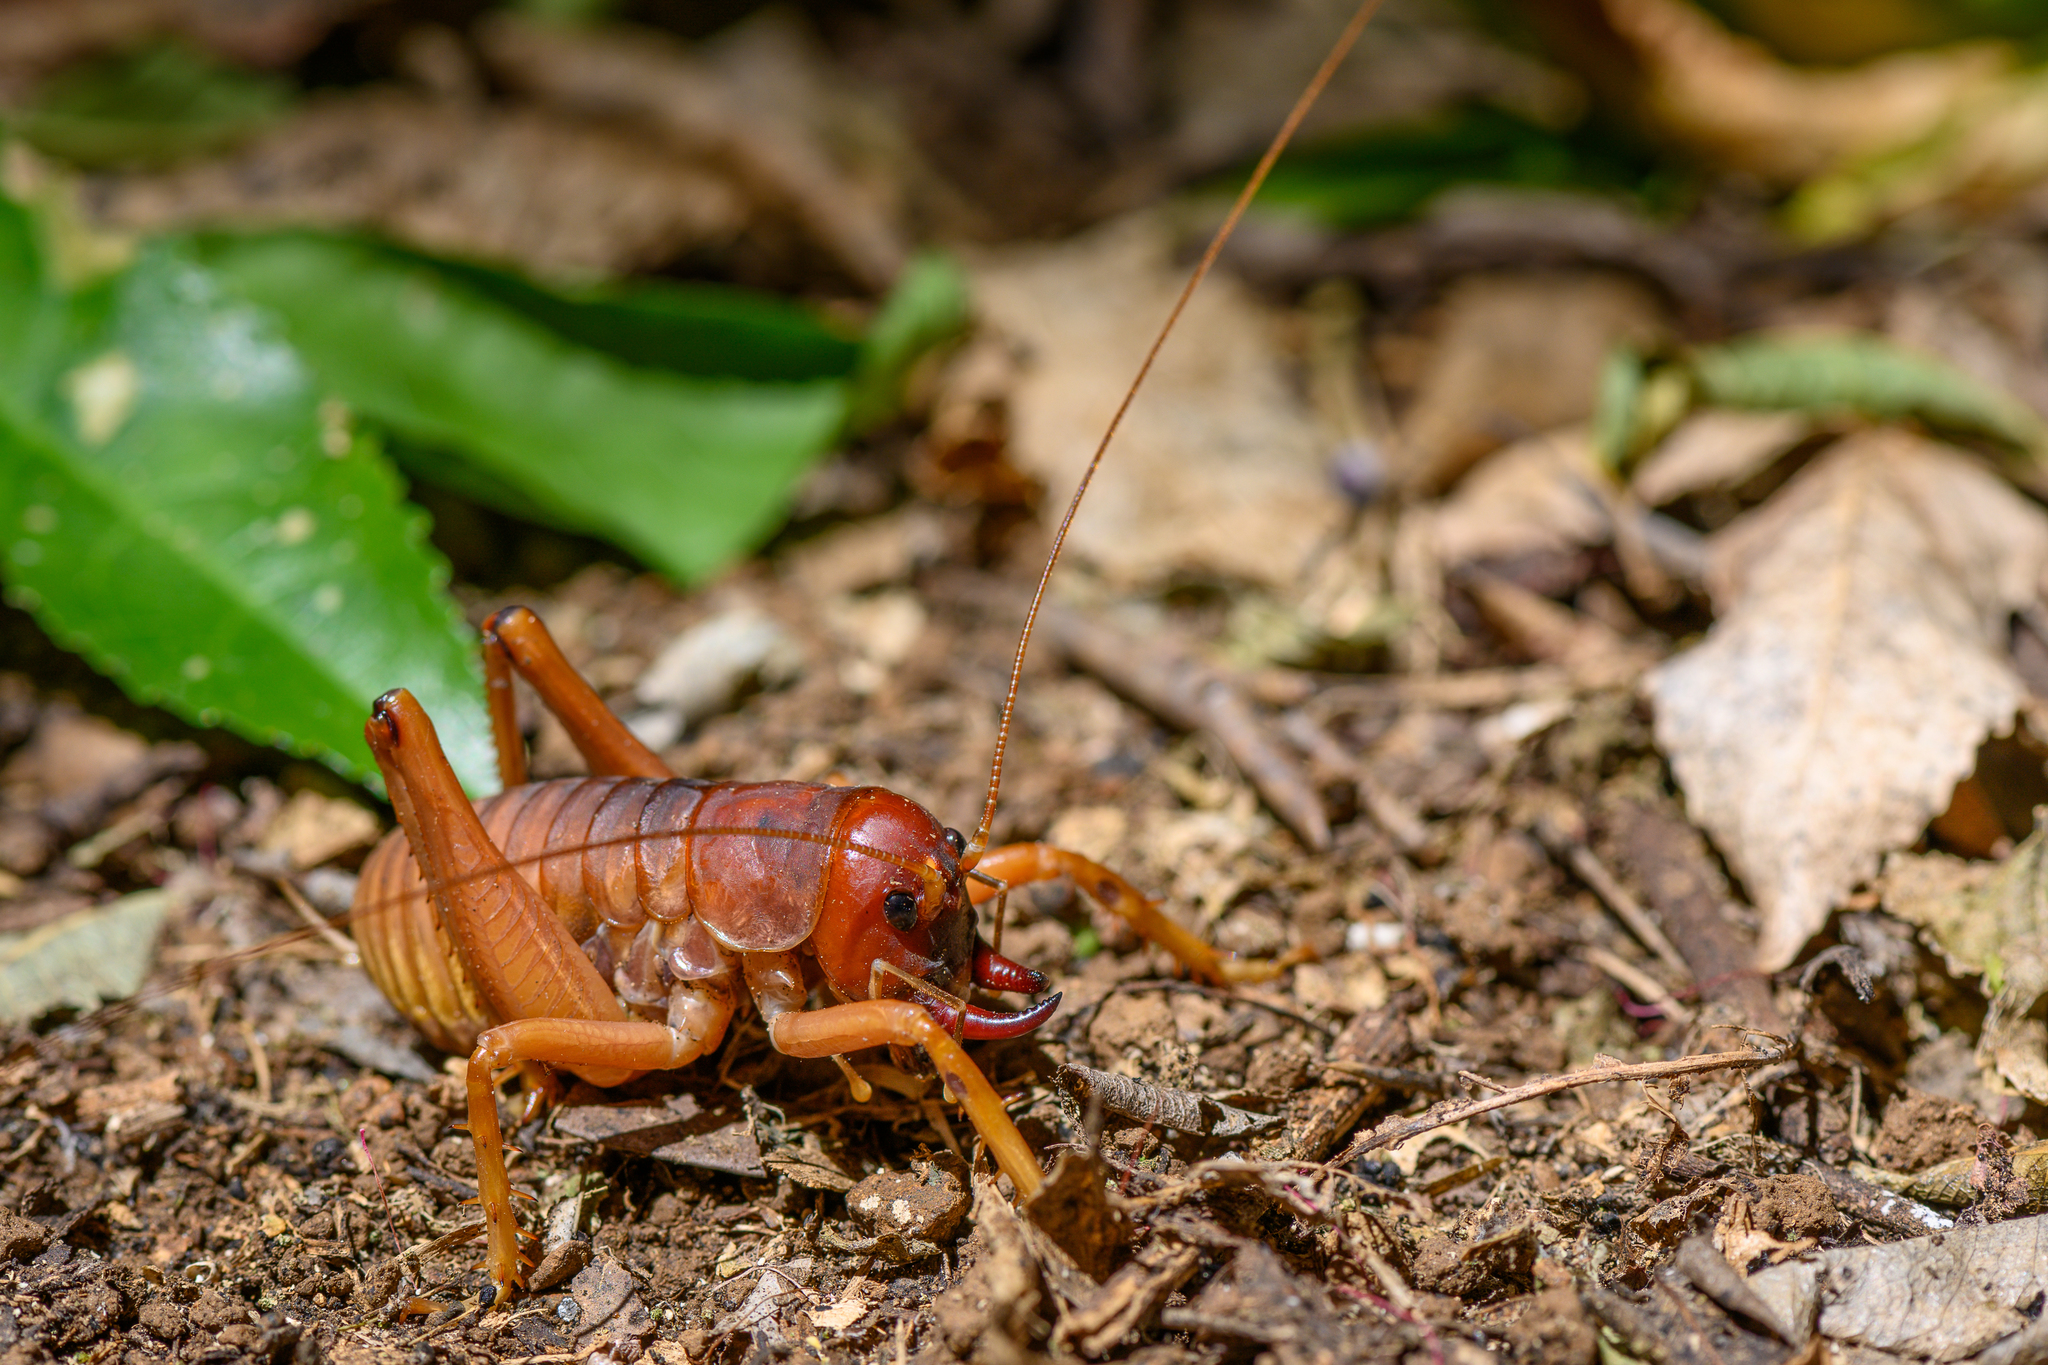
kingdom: Animalia
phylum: Arthropoda
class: Insecta
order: Orthoptera
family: Anostostomatidae
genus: Motuweta
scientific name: Motuweta isolata
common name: Mercury islands tusked weta
